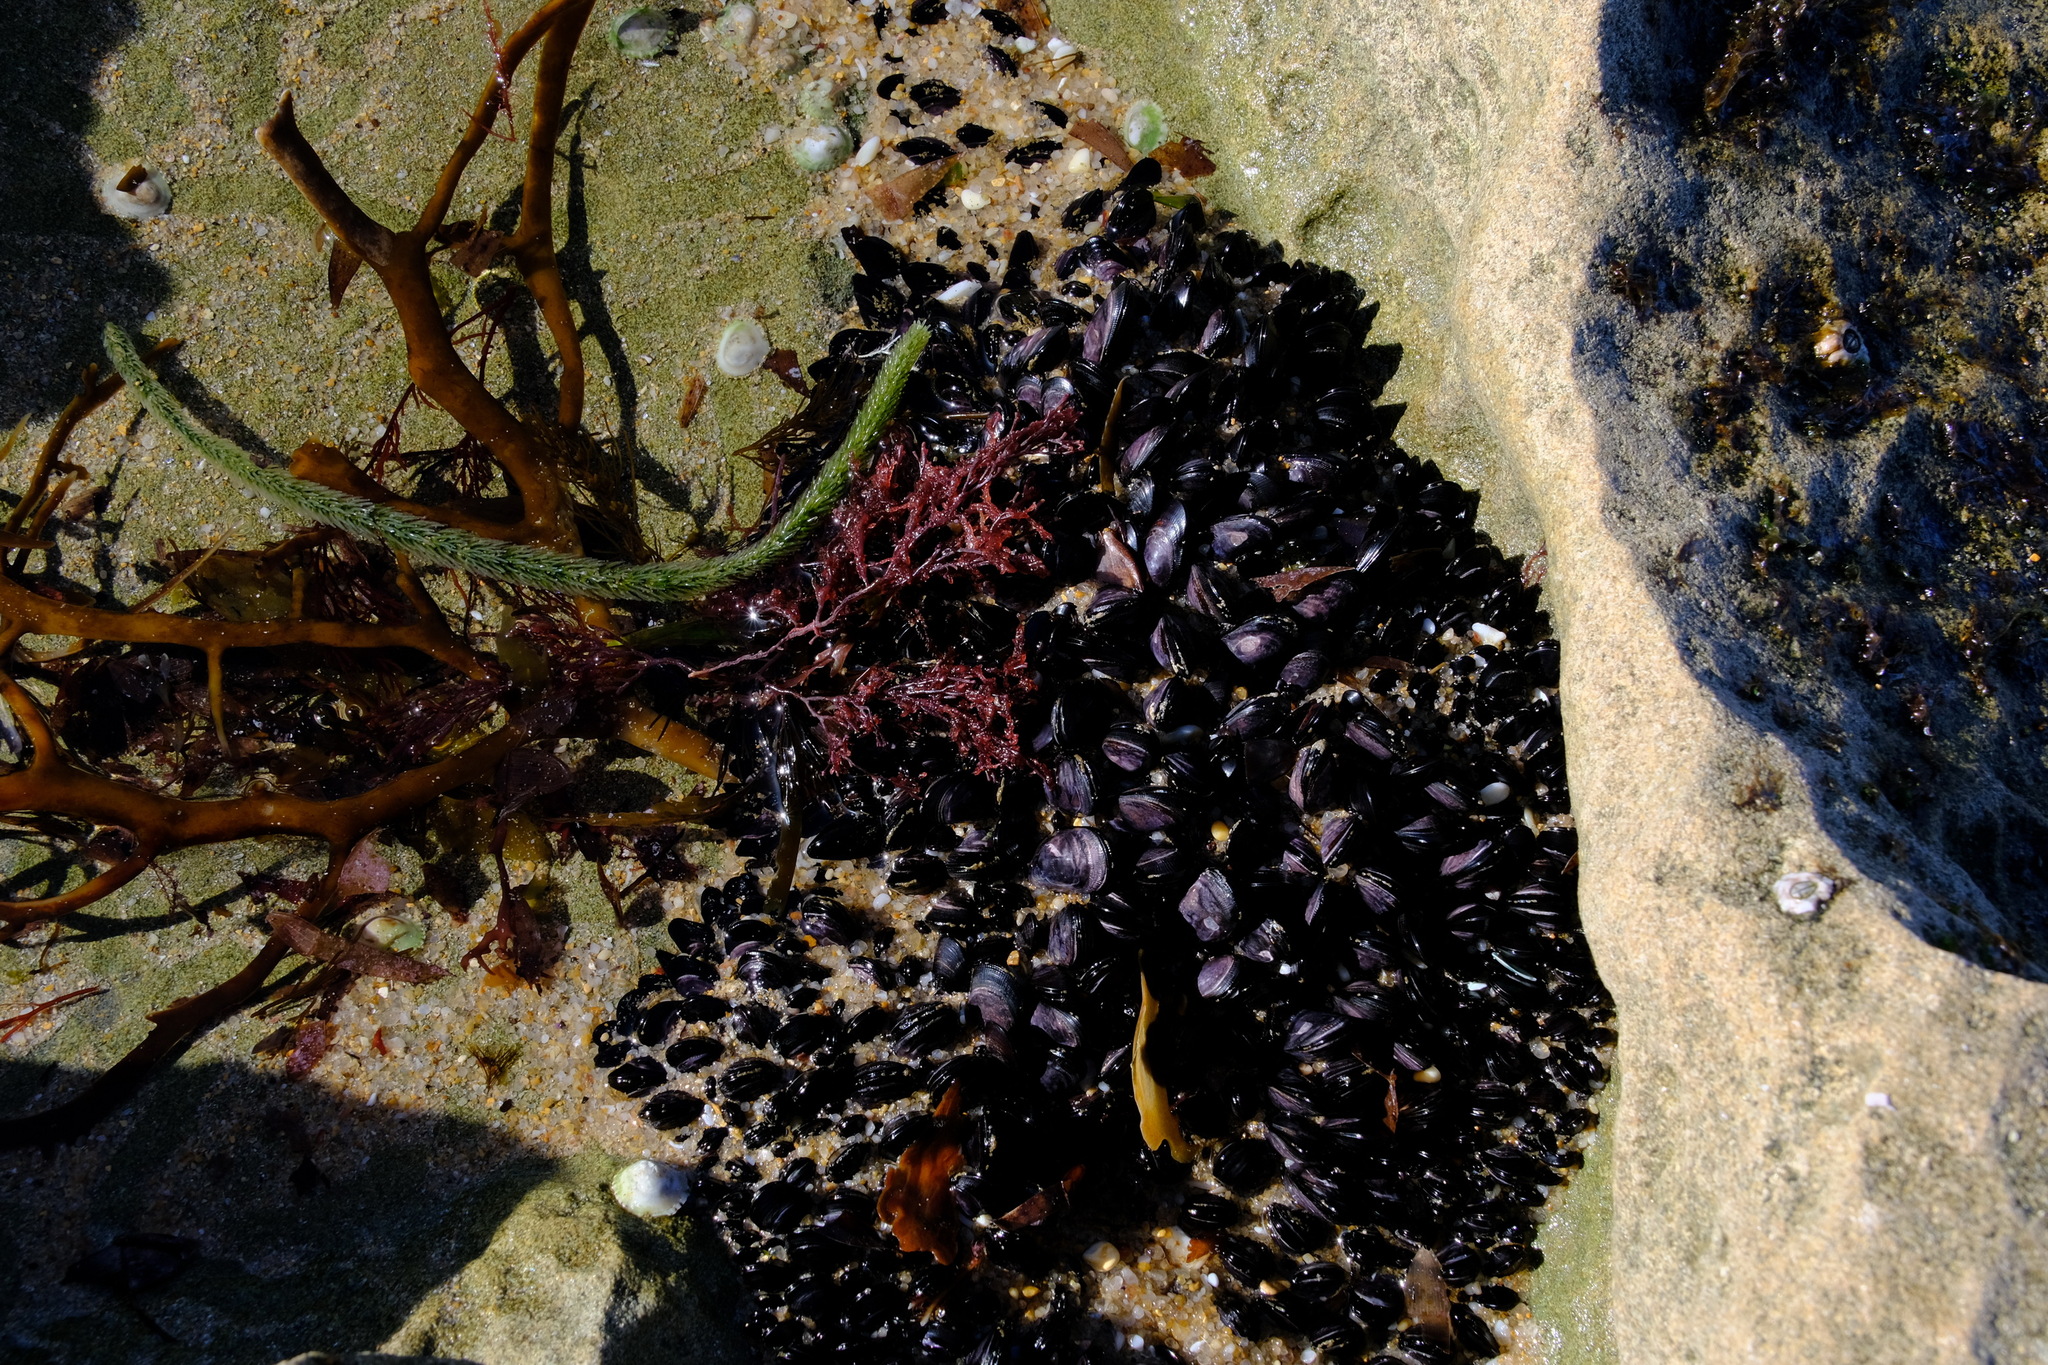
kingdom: Animalia
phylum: Mollusca
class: Bivalvia
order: Mytilida
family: Mytilidae
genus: Brachidontes
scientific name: Brachidontes rostratus
